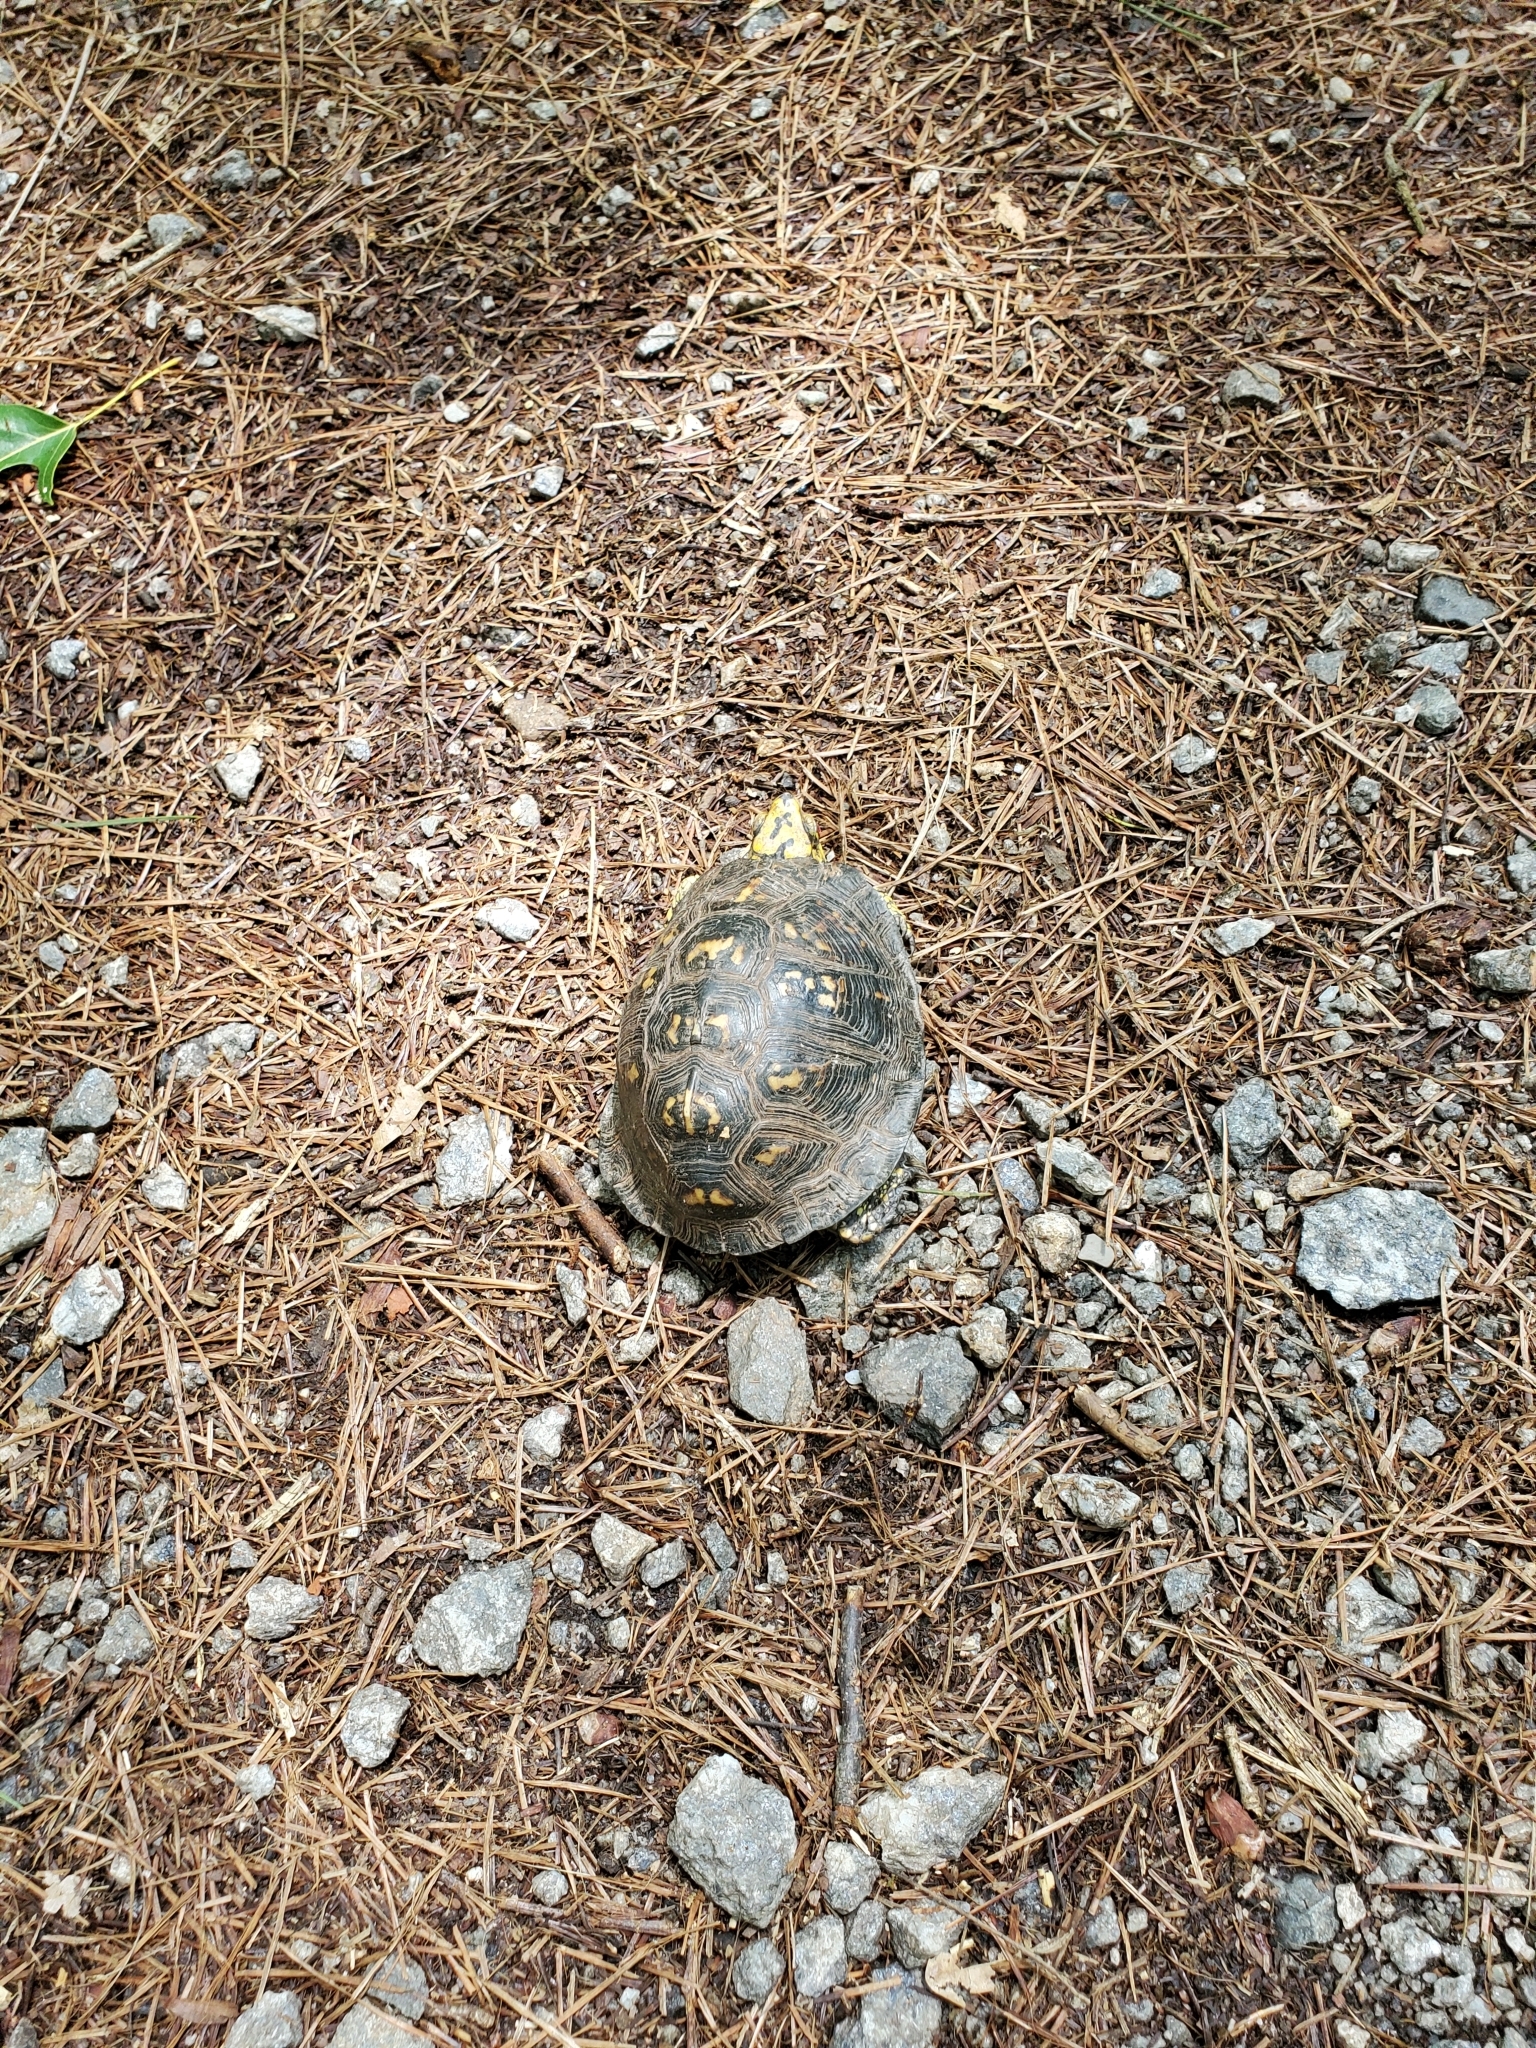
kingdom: Animalia
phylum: Chordata
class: Testudines
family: Emydidae
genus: Terrapene
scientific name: Terrapene carolina
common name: Common box turtle
